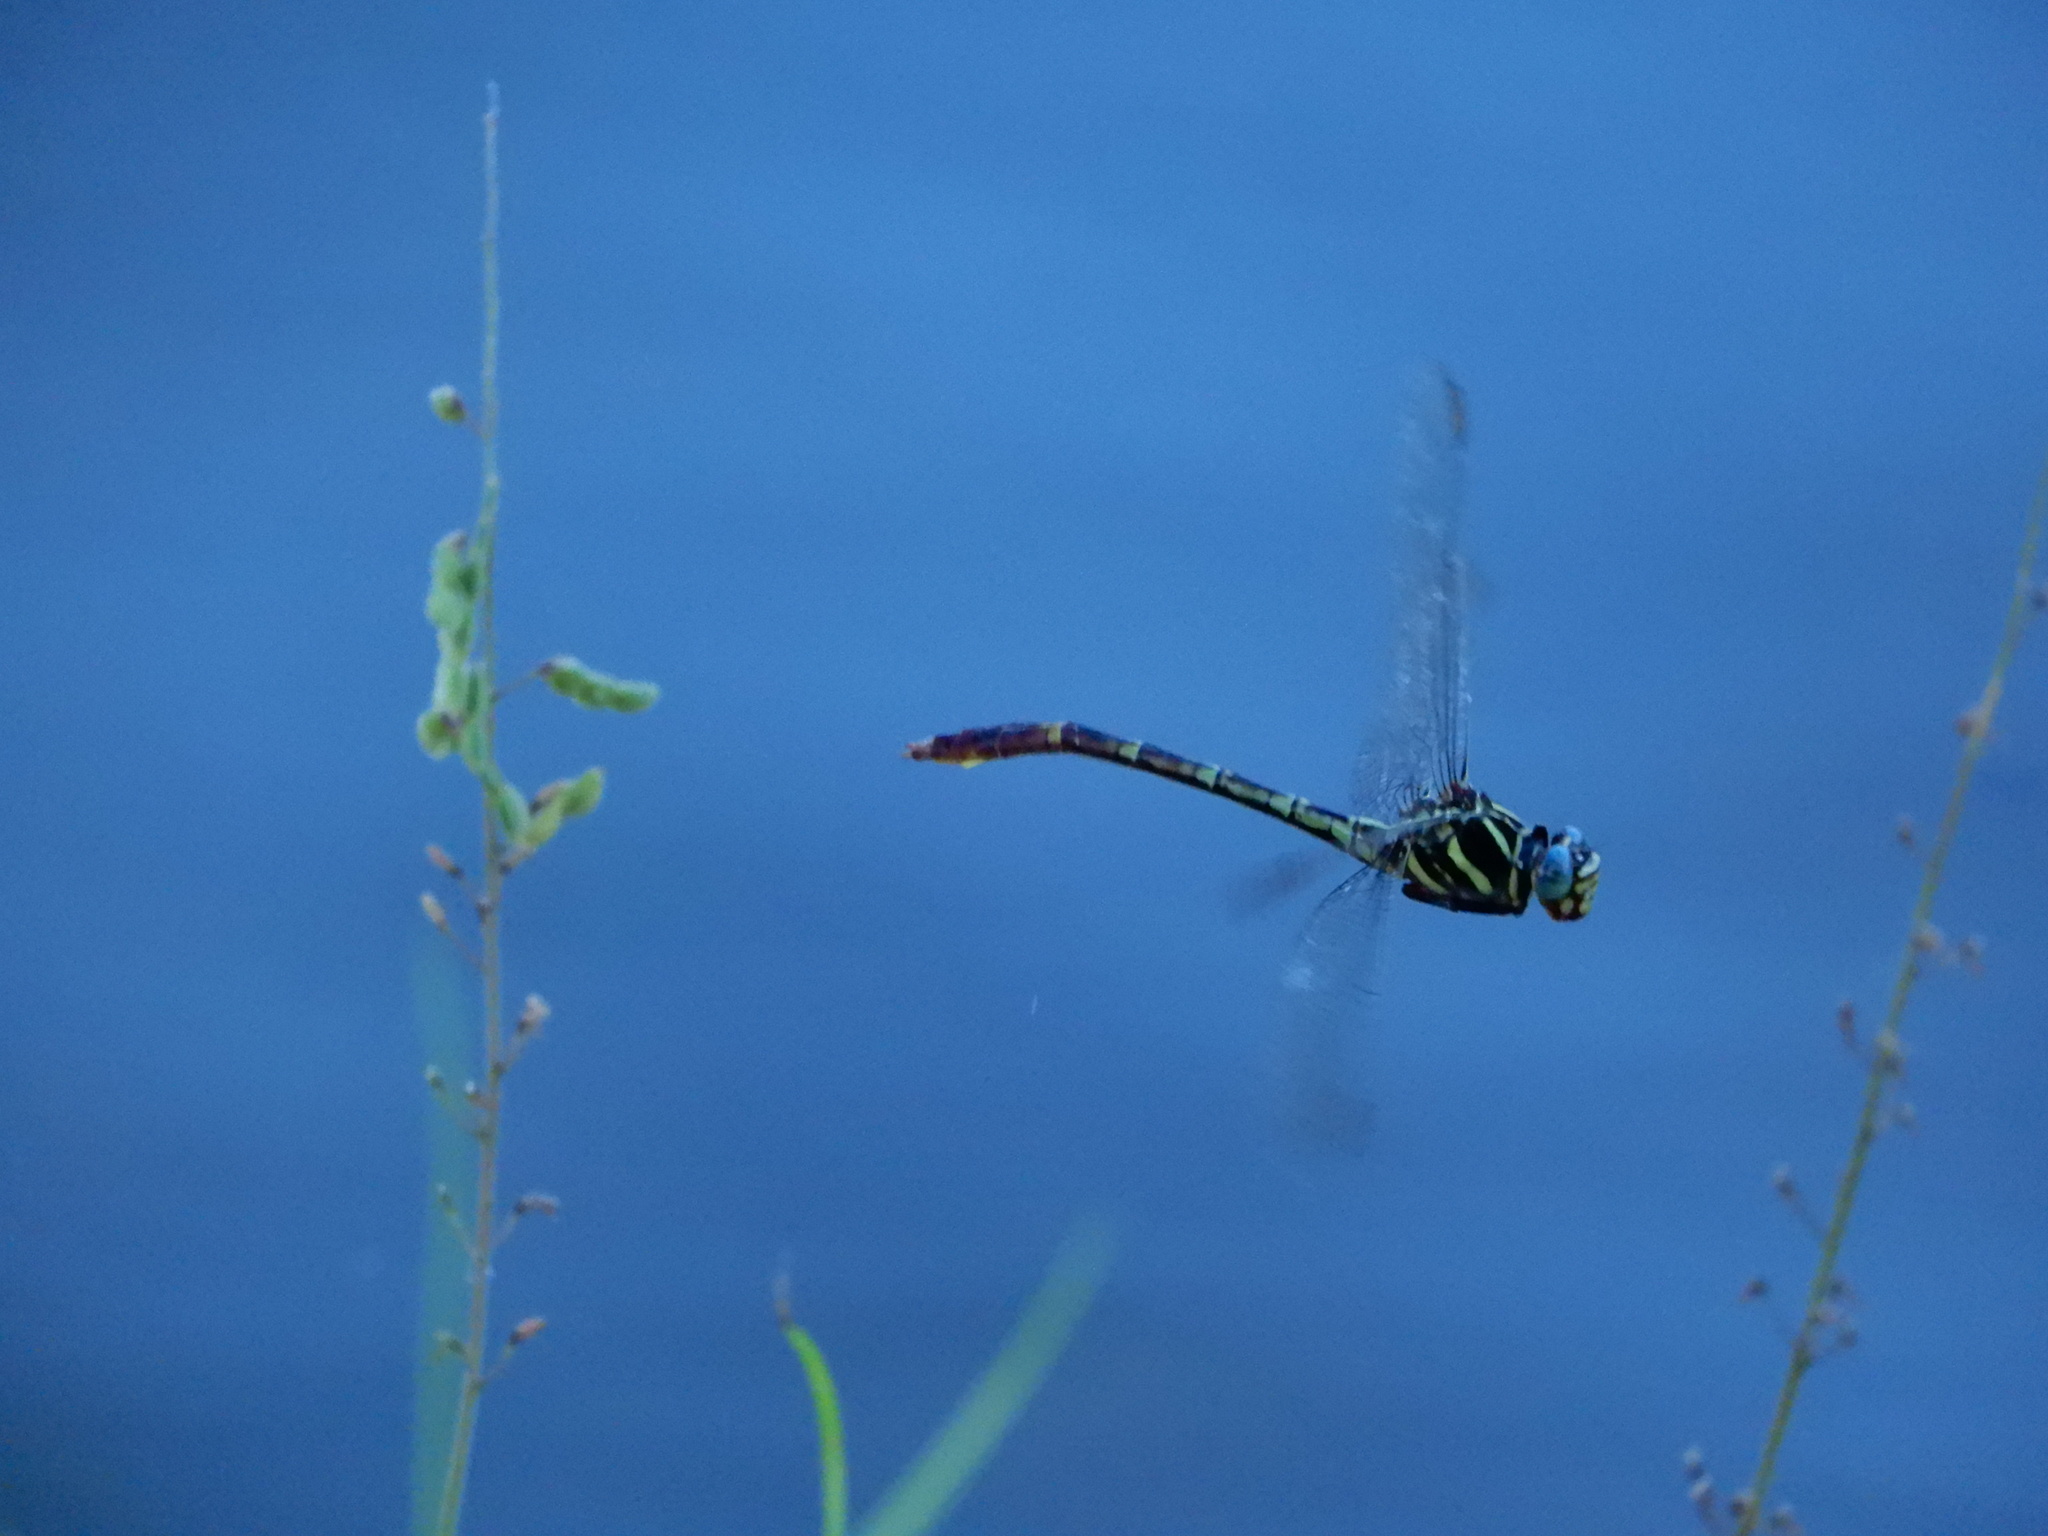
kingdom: Animalia
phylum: Arthropoda
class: Insecta
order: Odonata
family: Gomphidae
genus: Aphylla
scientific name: Aphylla williamsoni
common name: Two-striped forceptail
